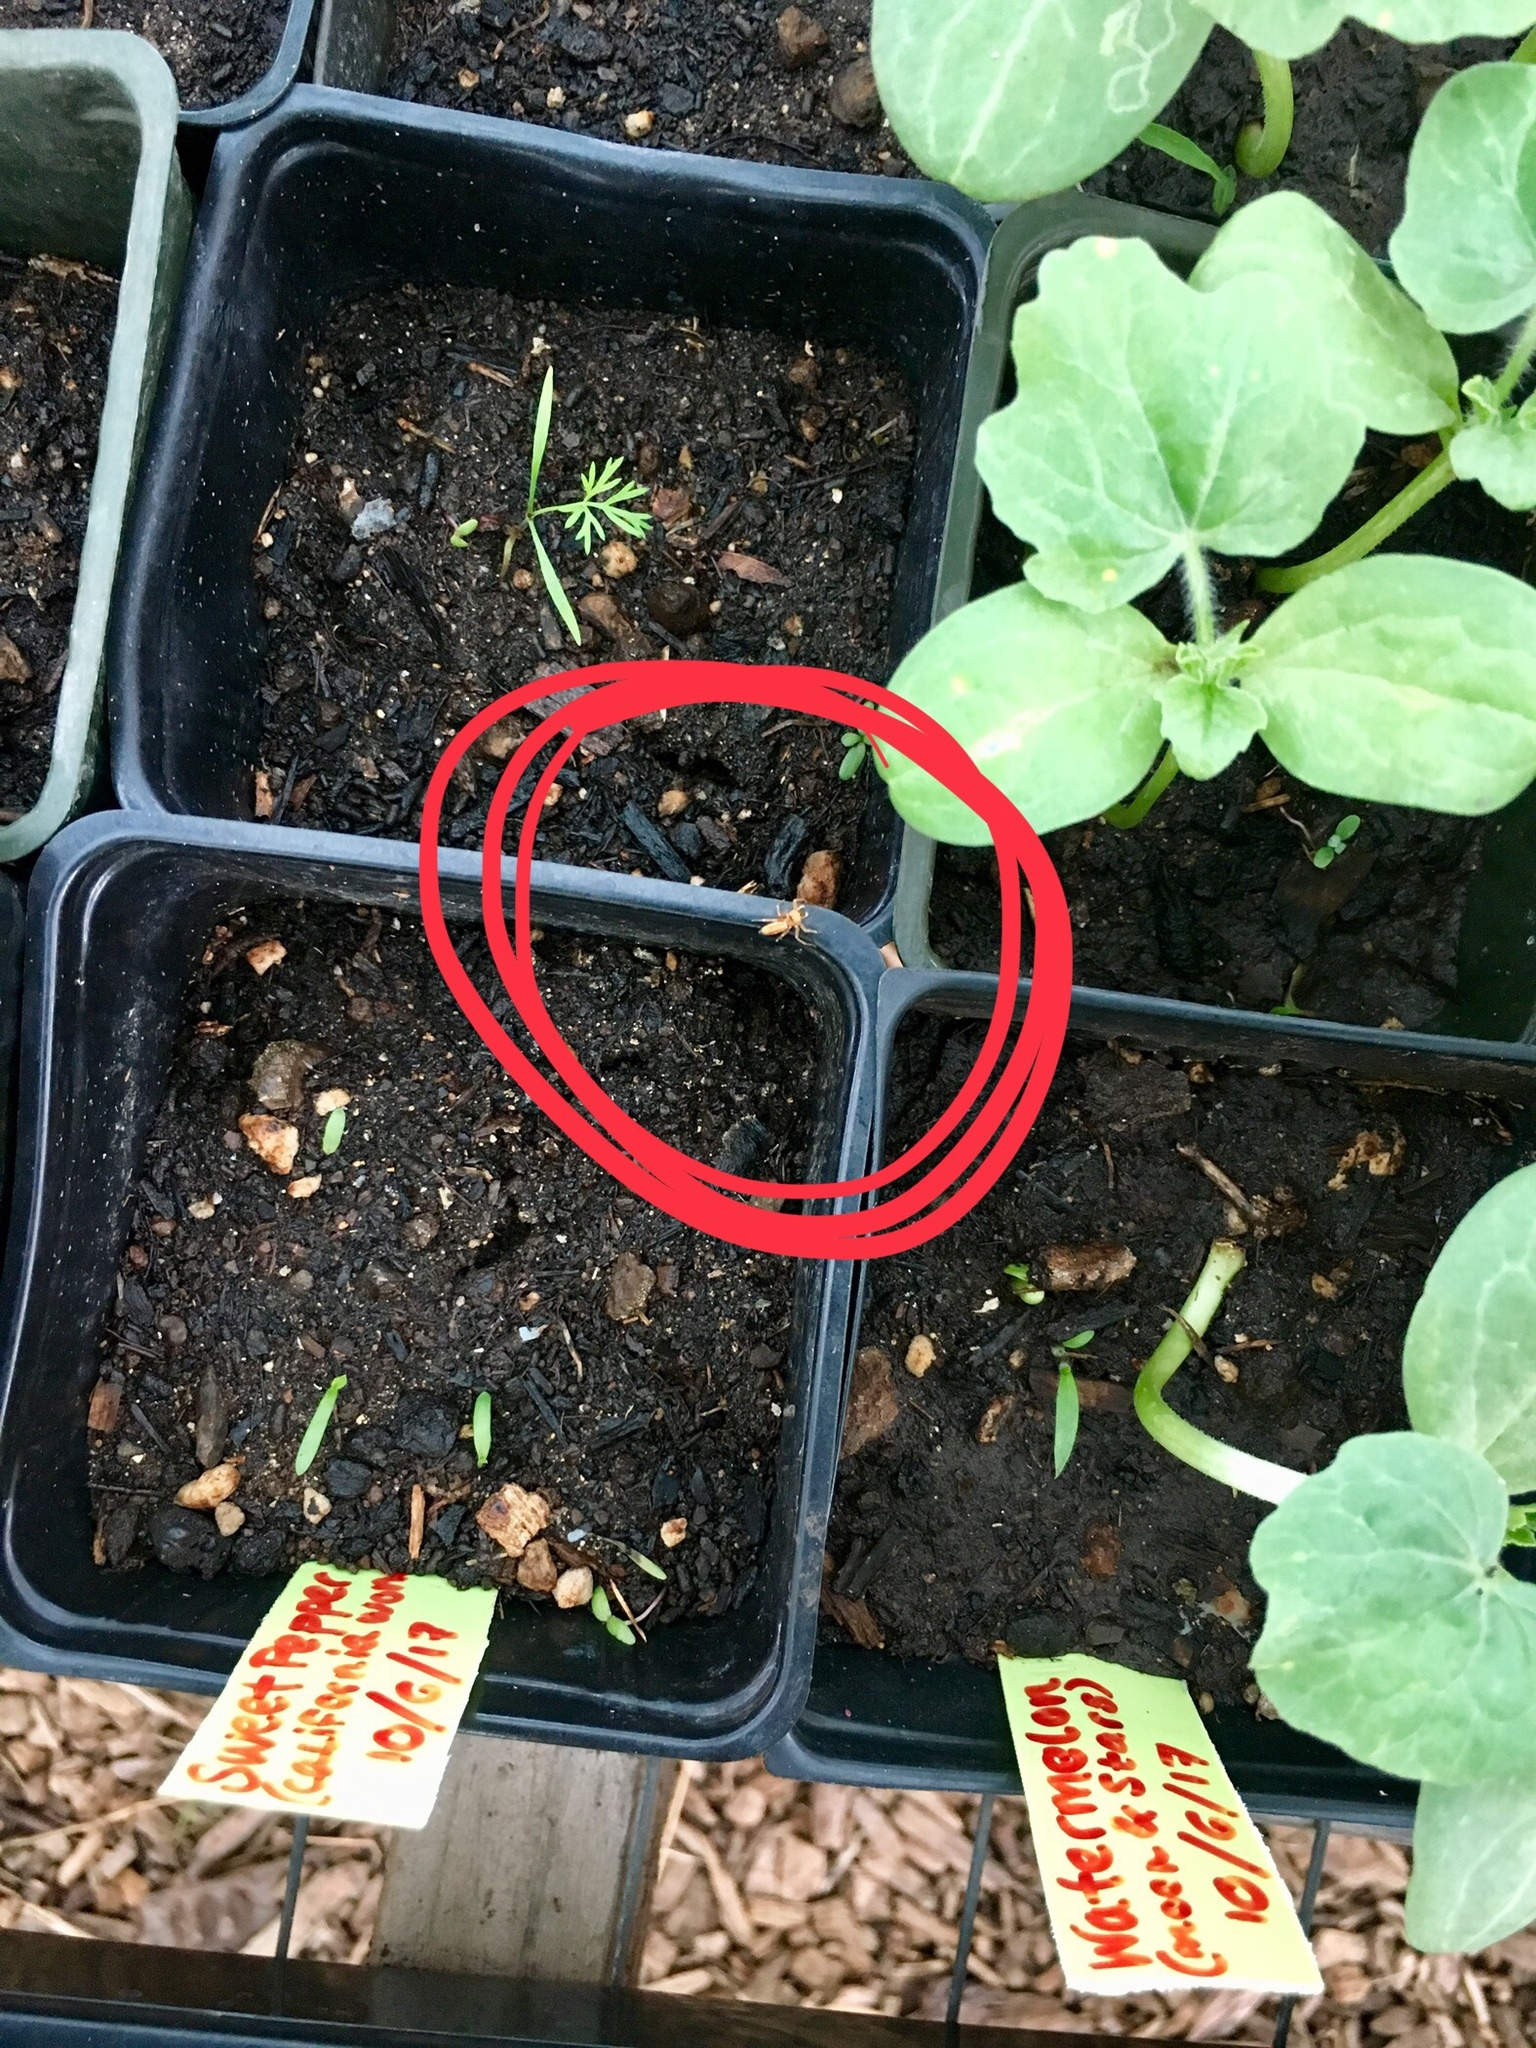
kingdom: Animalia
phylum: Arthropoda
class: Arachnida
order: Araneae
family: Salticidae
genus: Cosmophasis
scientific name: Cosmophasis lami
